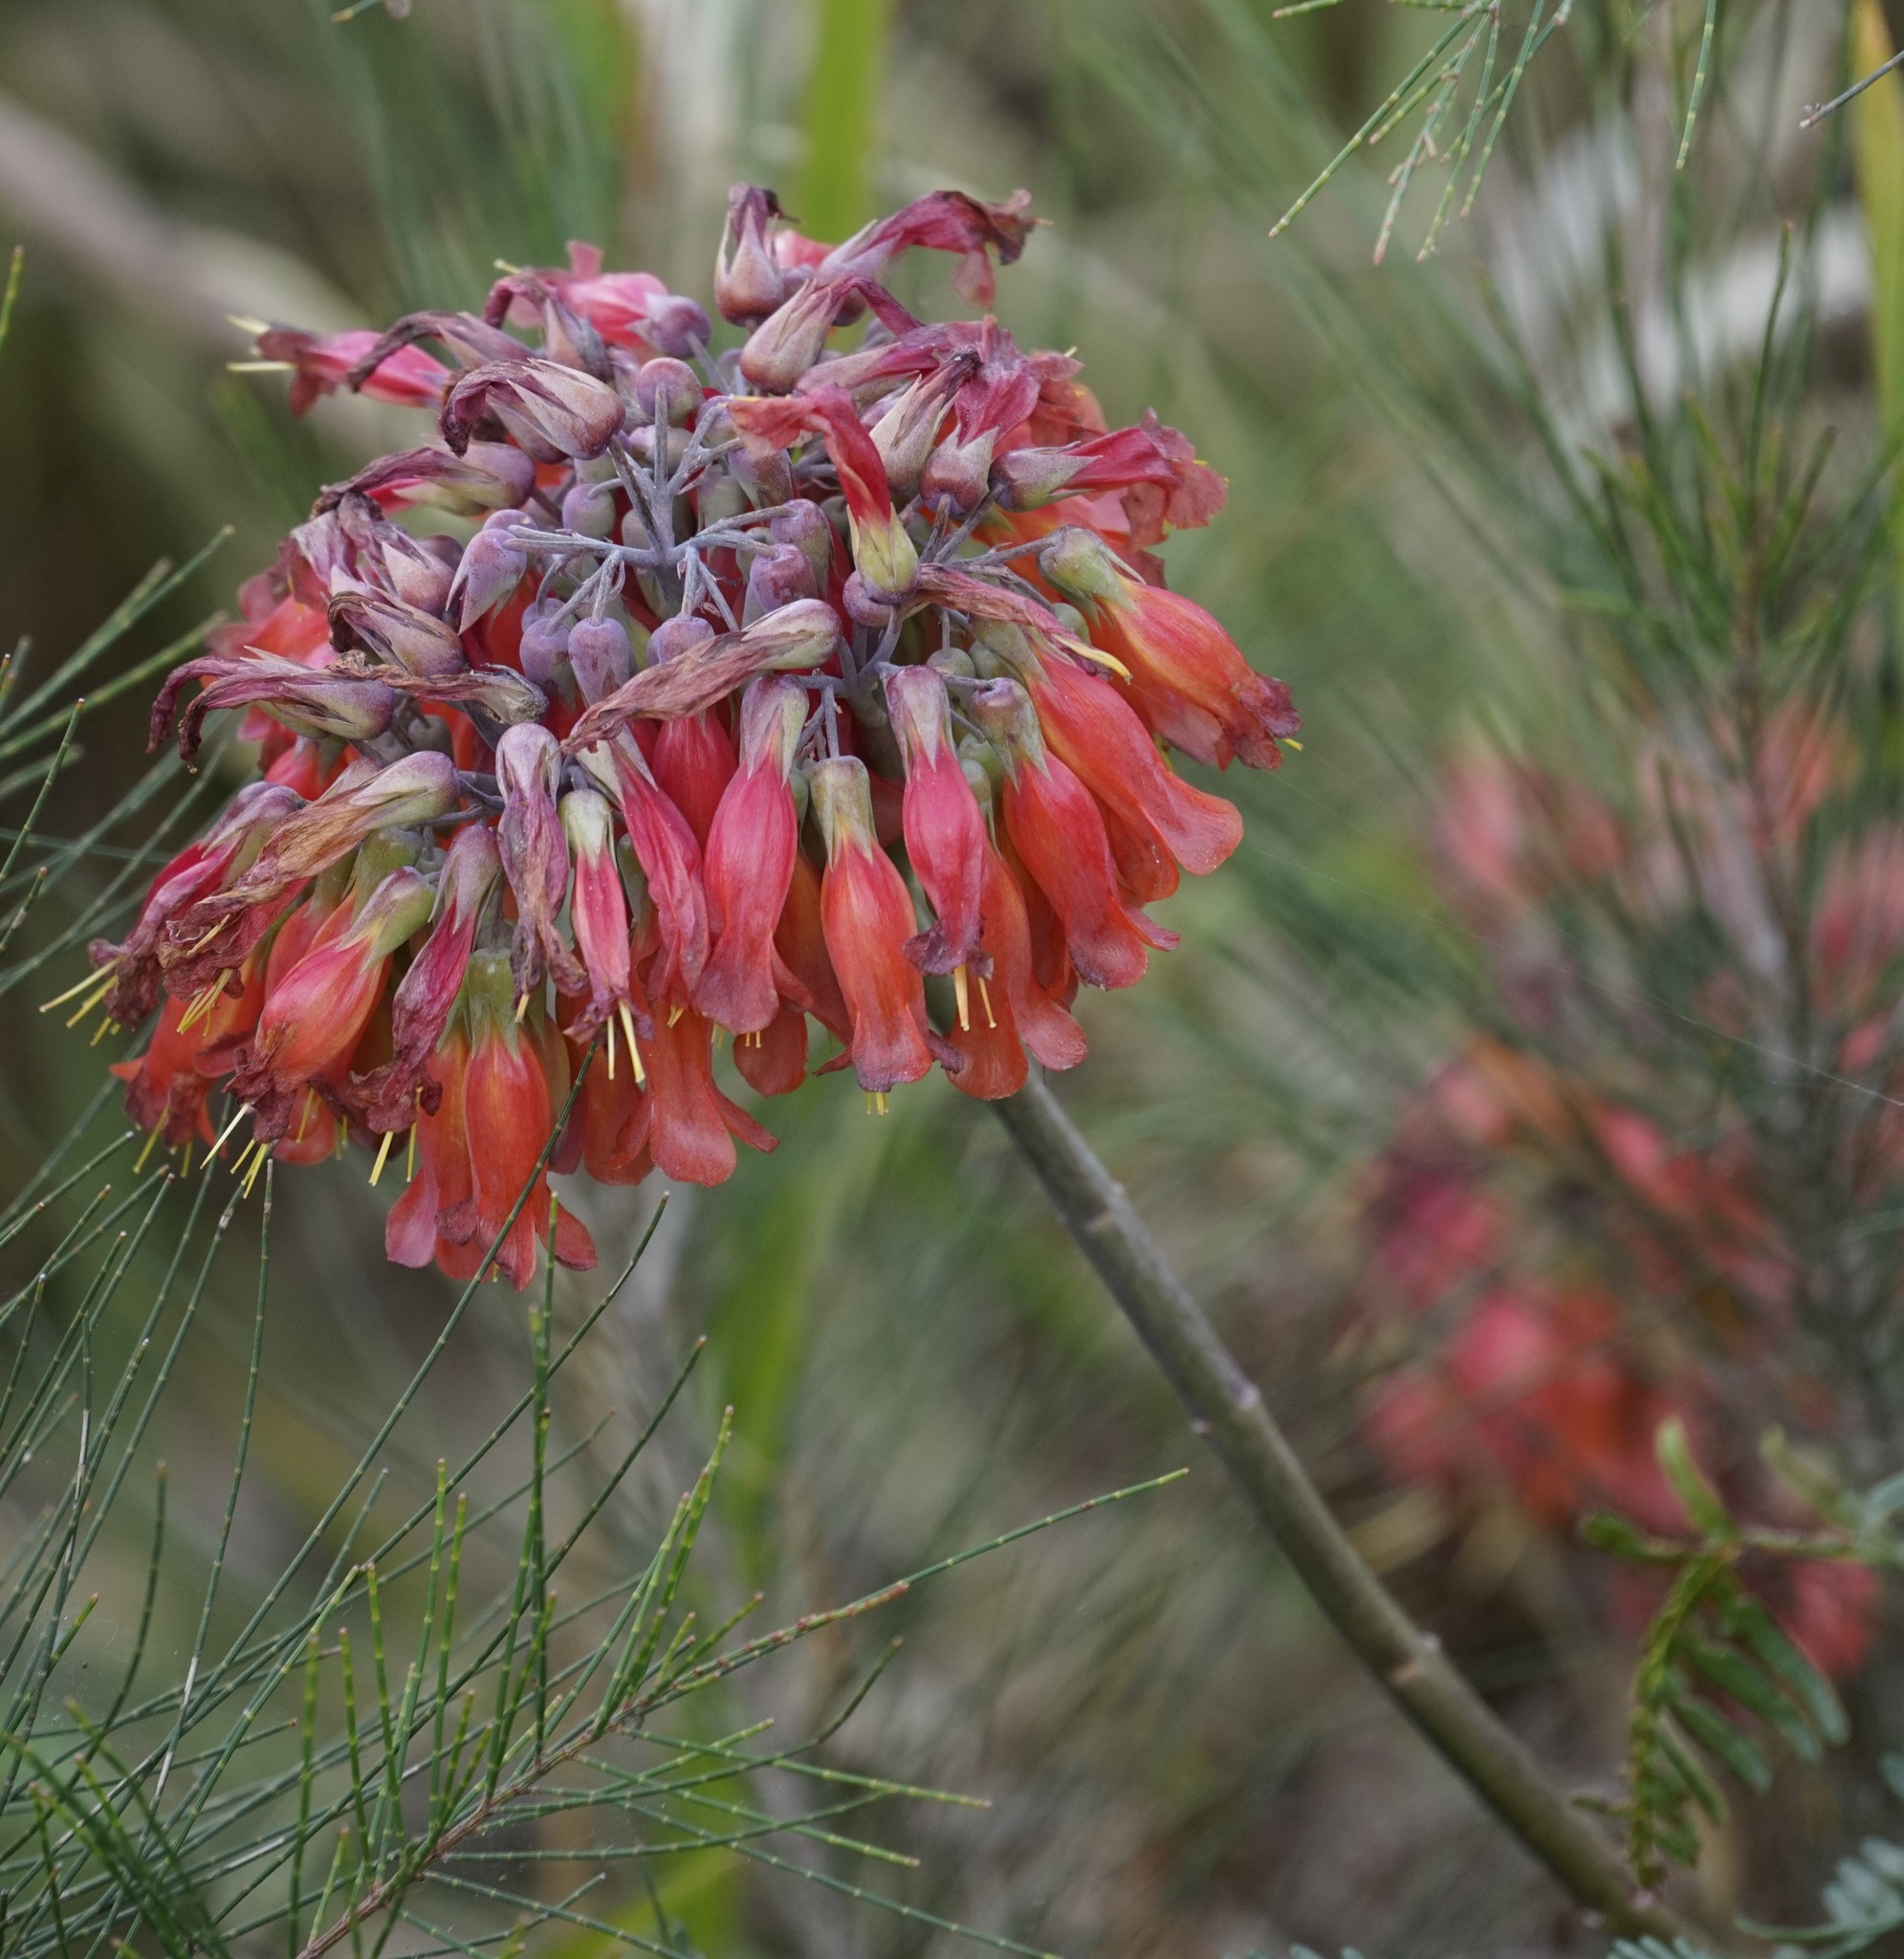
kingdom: Chromista
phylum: Ciliophora
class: Gymnostomatea
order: Spathidiida
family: Spathidiidae
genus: Bryophyllum
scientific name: Bryophyllum
